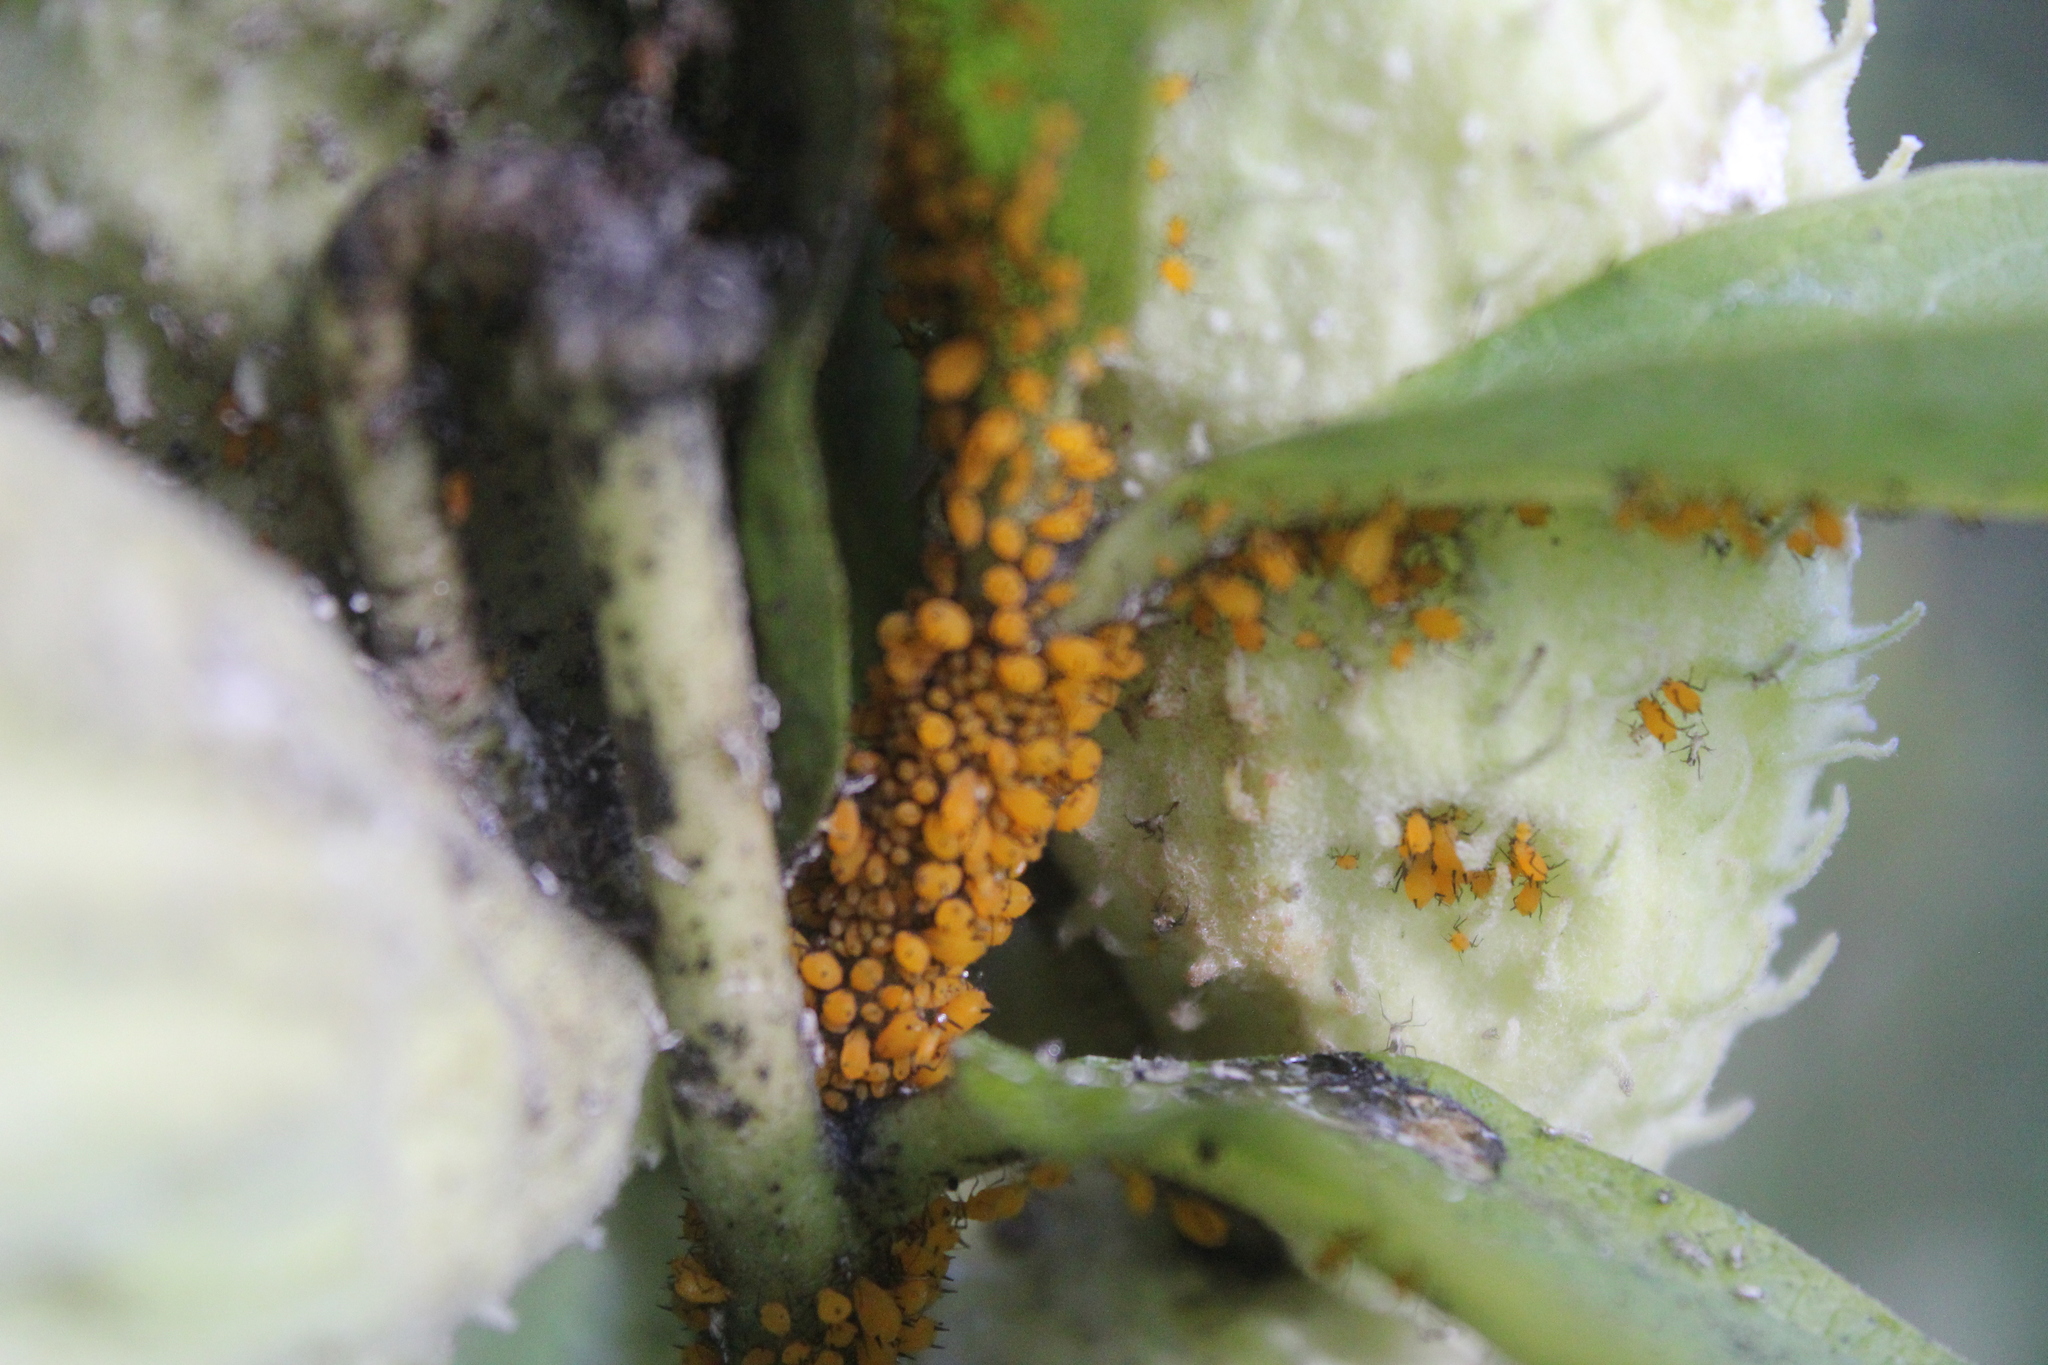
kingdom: Animalia
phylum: Arthropoda
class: Insecta
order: Hemiptera
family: Aphididae
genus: Aphis
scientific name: Aphis nerii
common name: Oleander aphid
